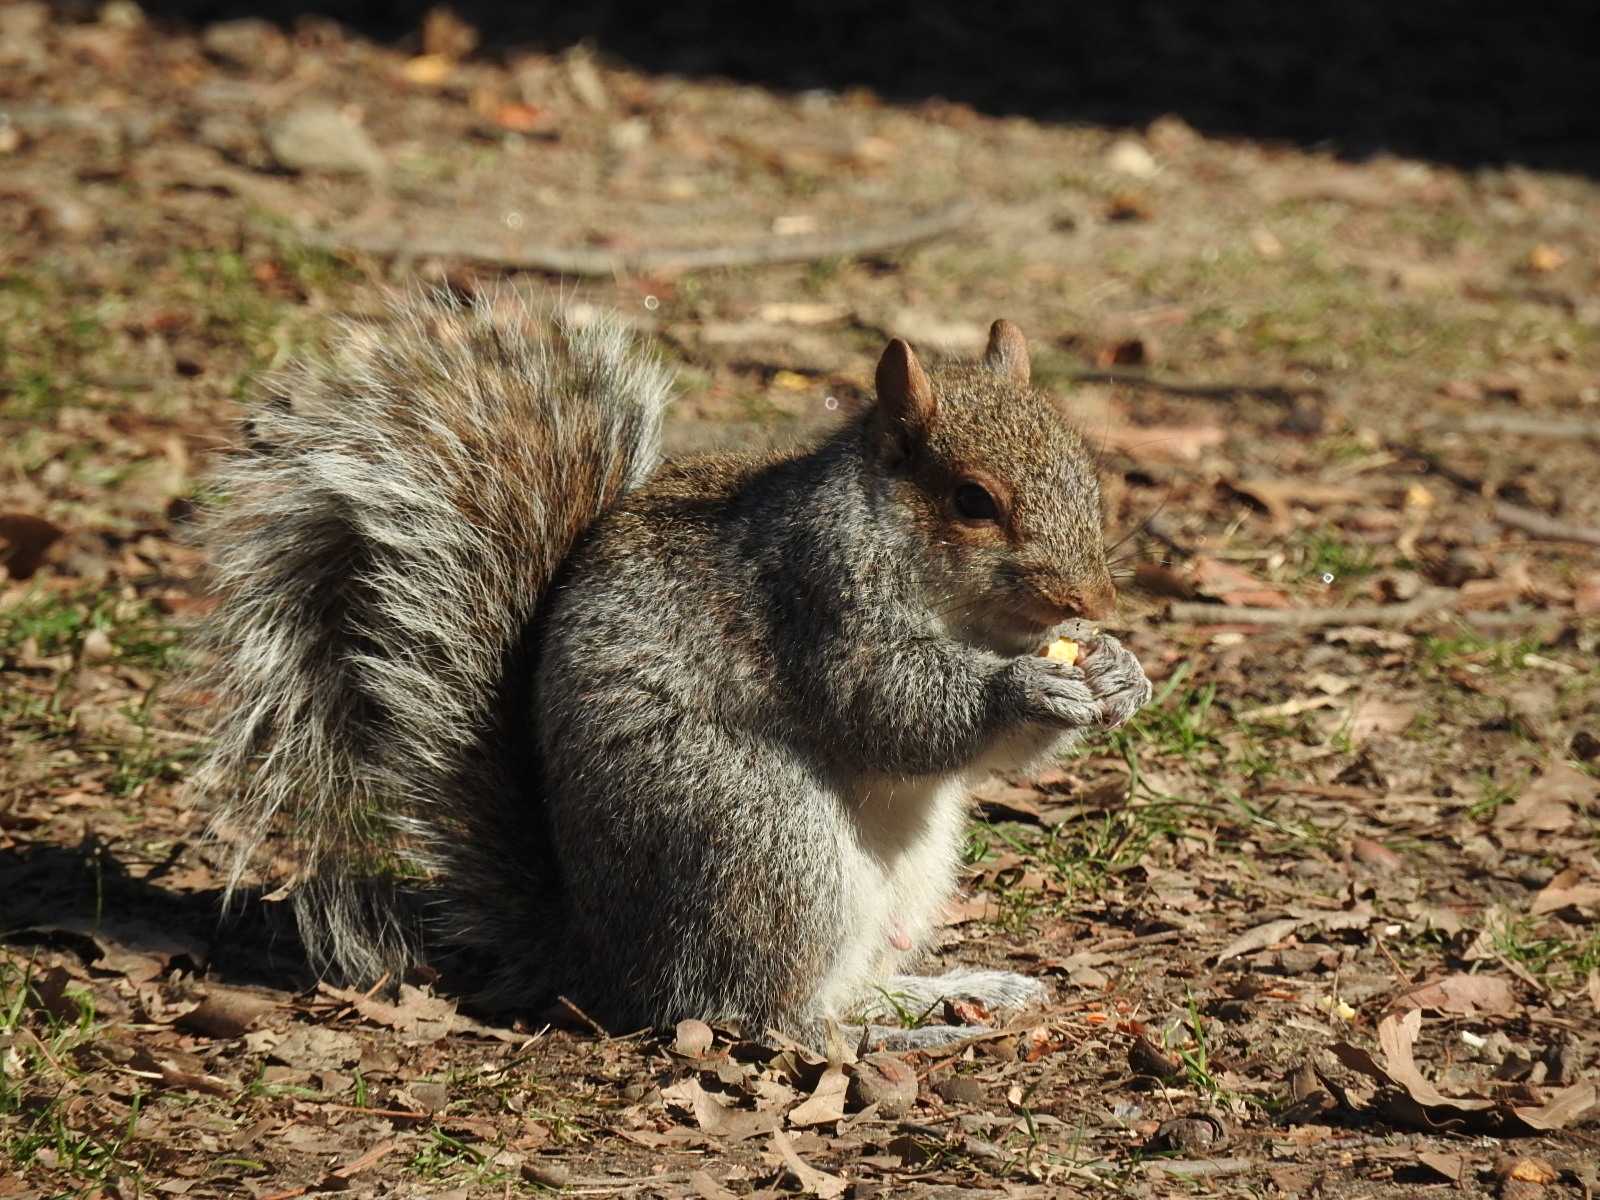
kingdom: Animalia
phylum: Chordata
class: Mammalia
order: Rodentia
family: Sciuridae
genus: Sciurus
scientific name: Sciurus carolinensis
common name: Eastern gray squirrel
